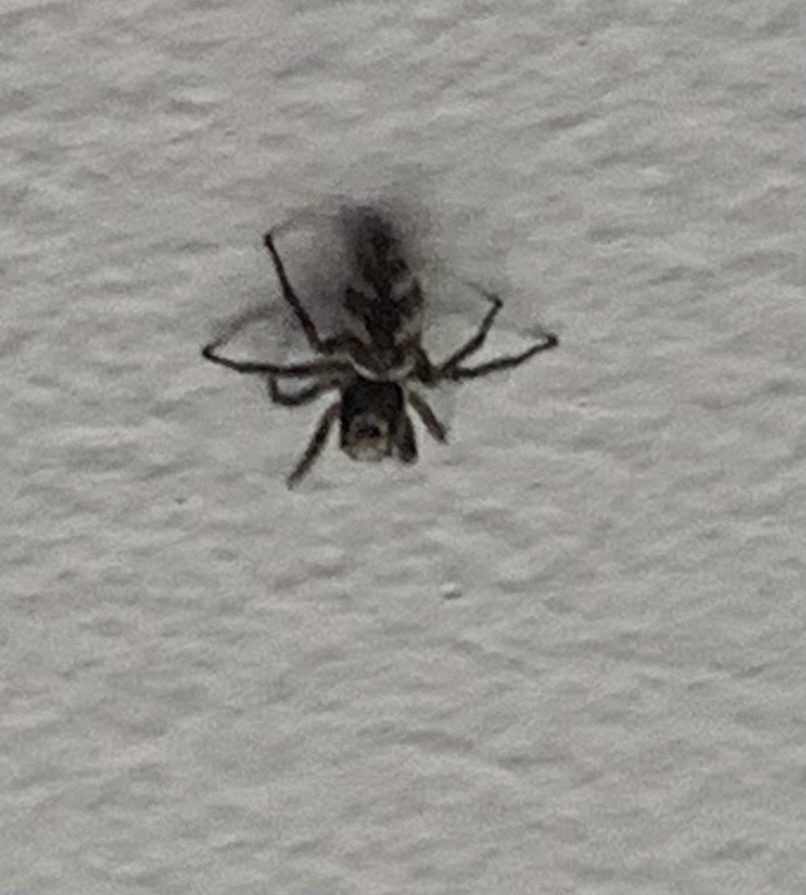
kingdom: Animalia
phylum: Arthropoda
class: Arachnida
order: Araneae
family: Salticidae
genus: Salticus
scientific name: Salticus scenicus
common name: Zebra jumper
